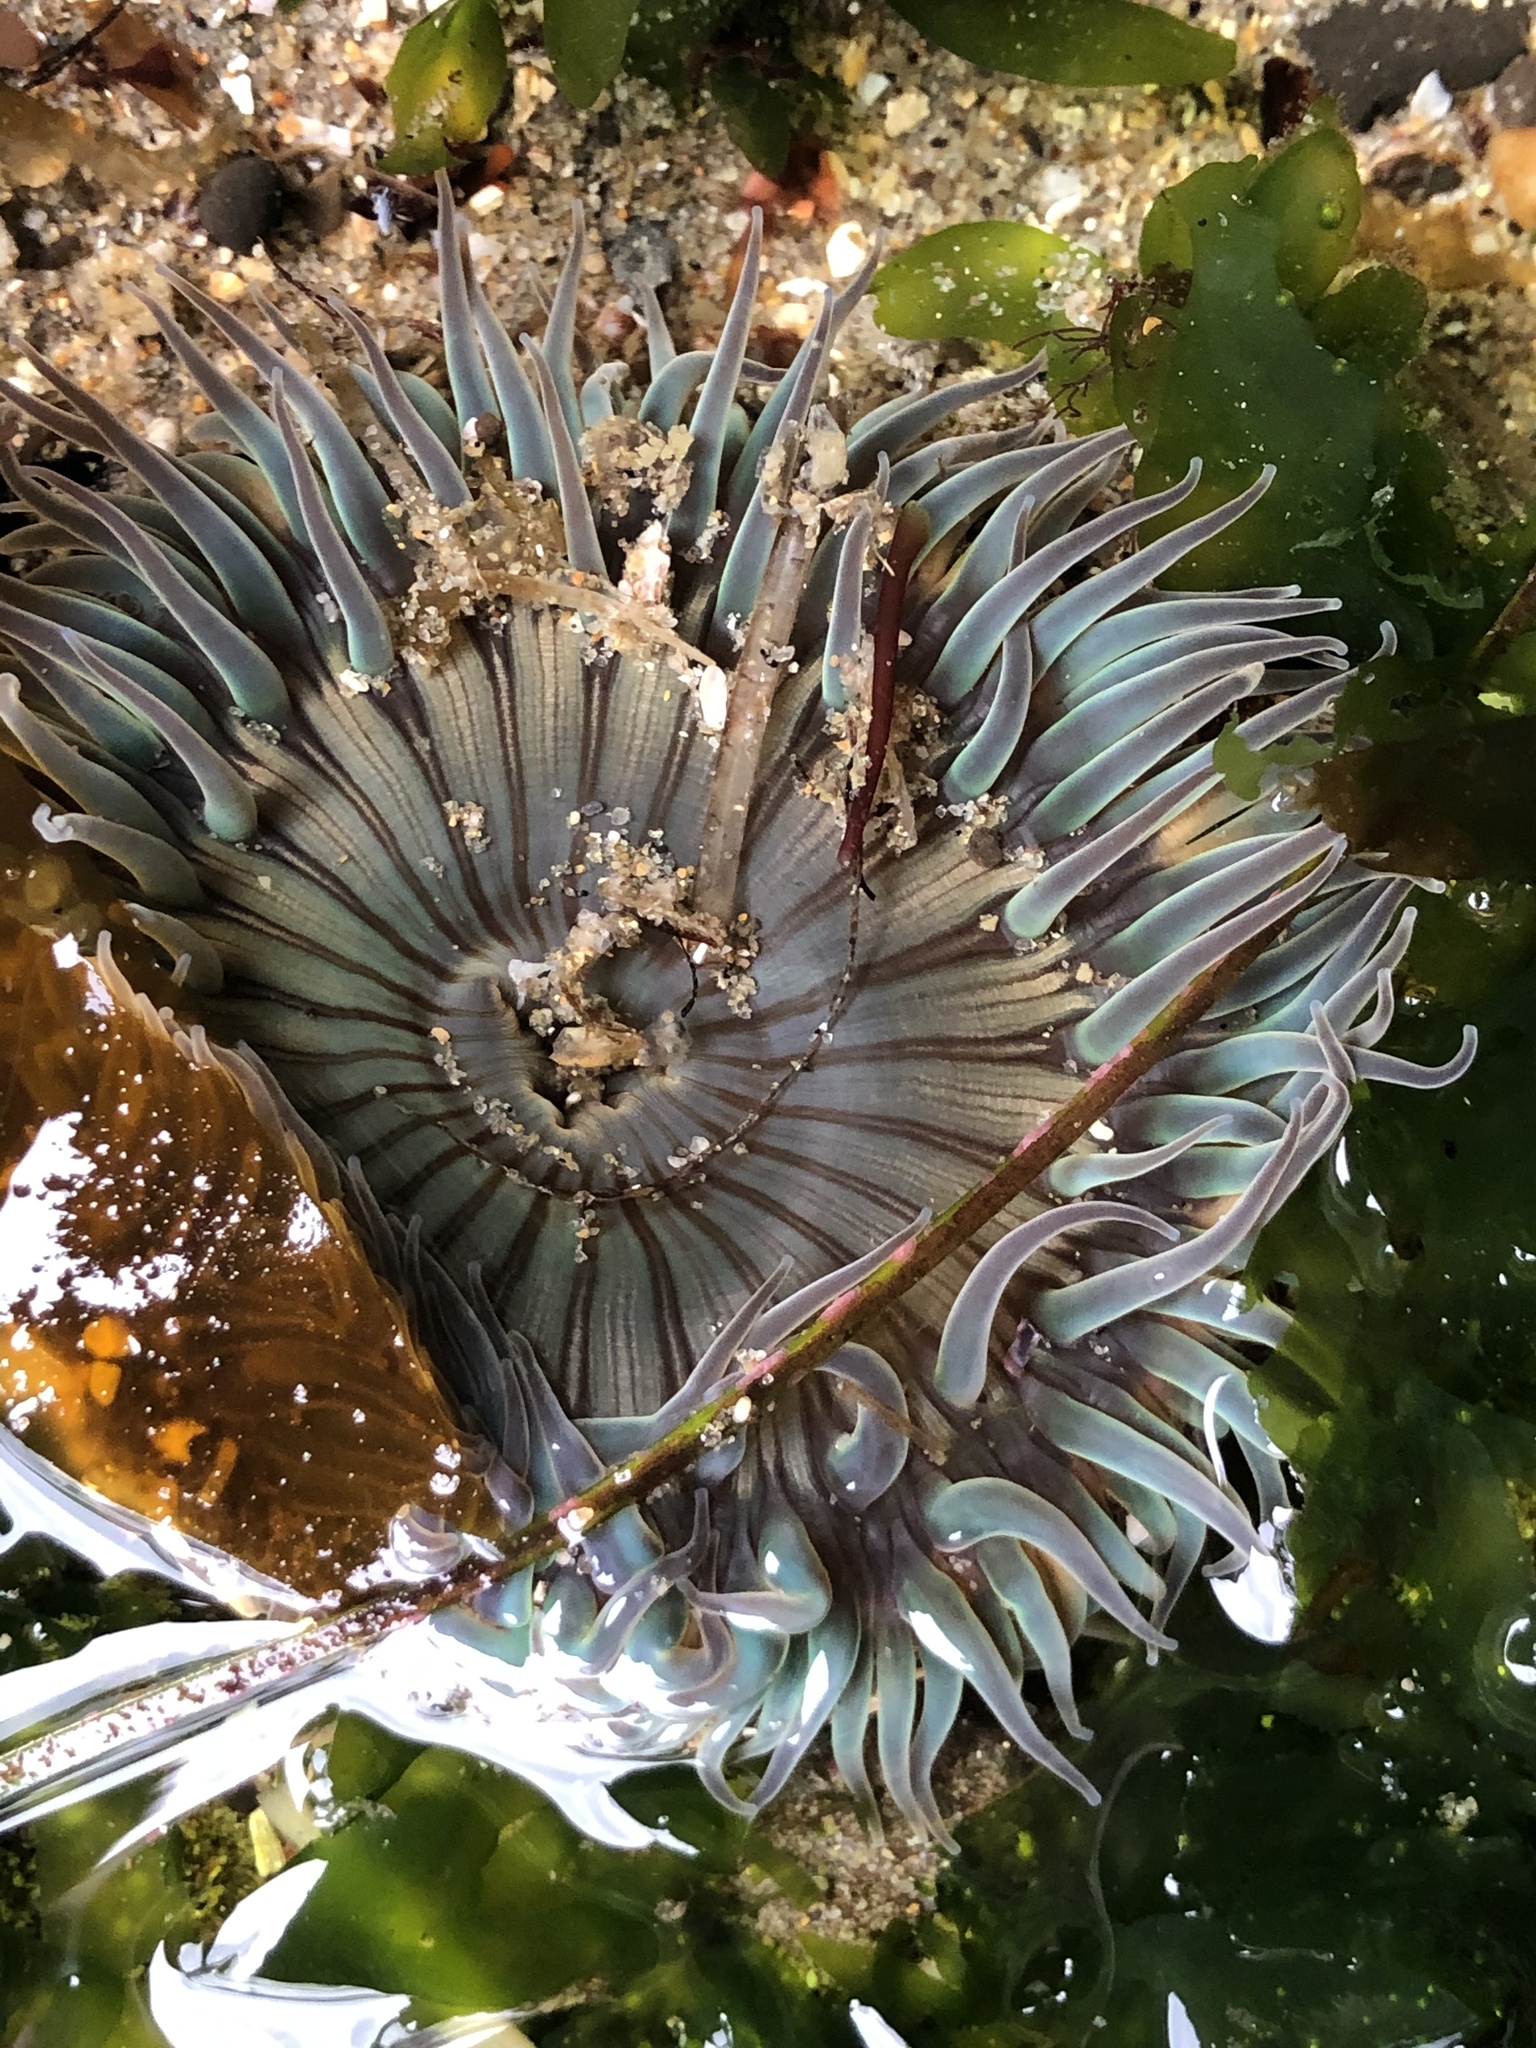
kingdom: Animalia
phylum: Cnidaria
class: Anthozoa
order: Actiniaria
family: Actiniidae
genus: Anthopleura
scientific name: Anthopleura sola
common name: Sun anemone
